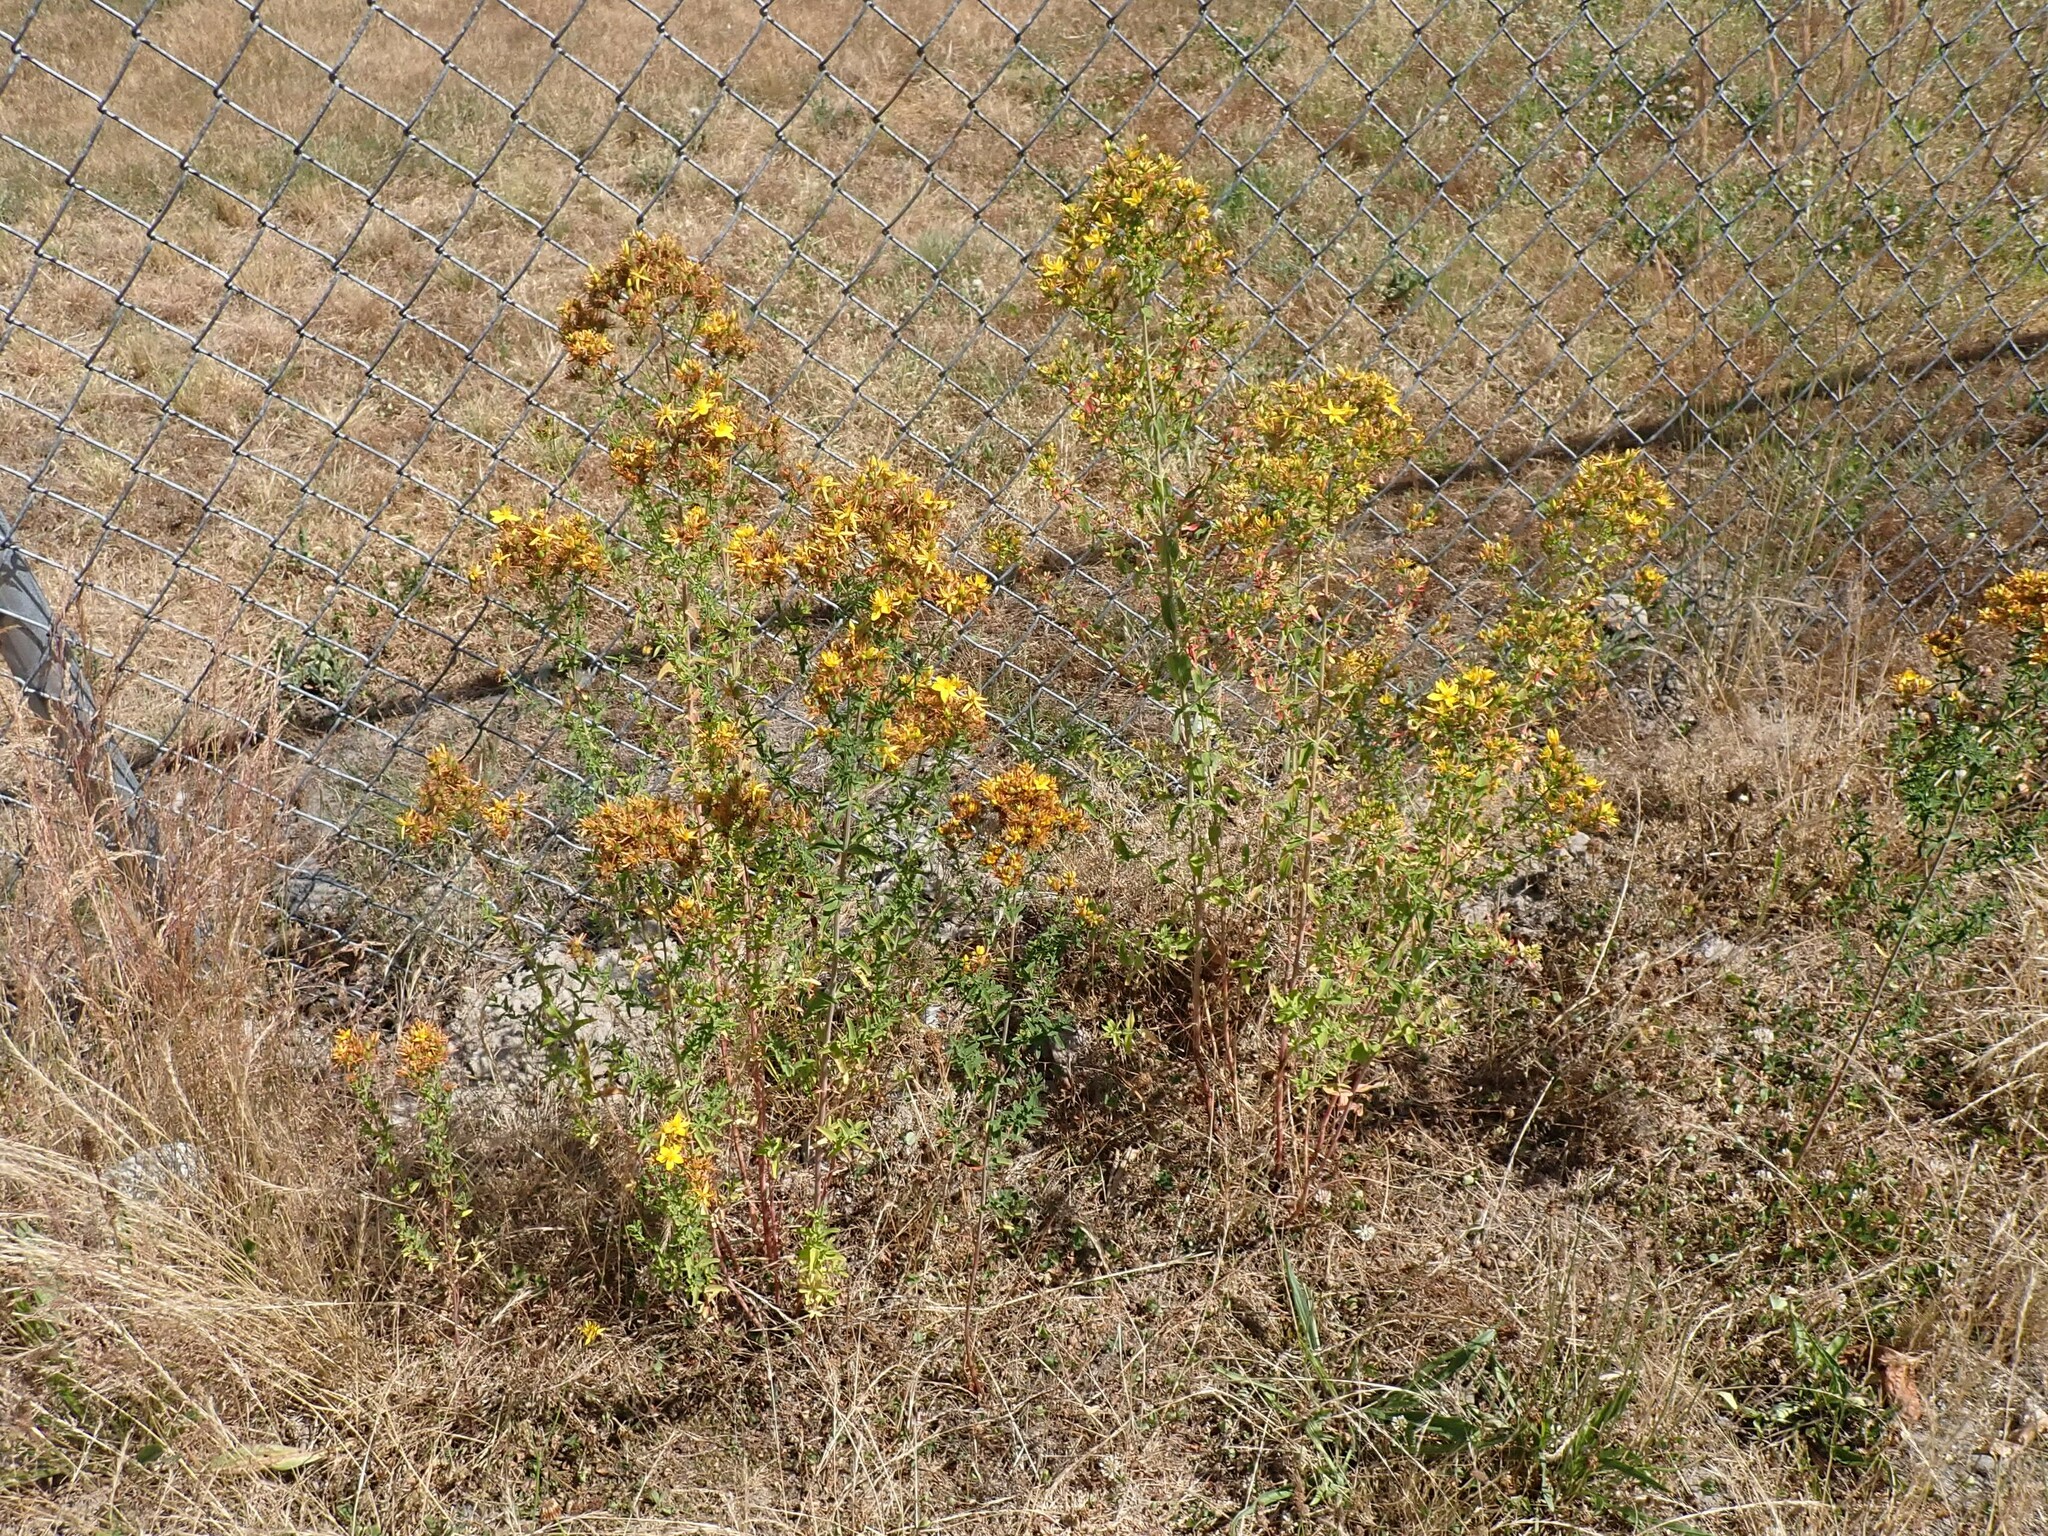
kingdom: Plantae
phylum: Tracheophyta
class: Magnoliopsida
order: Malpighiales
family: Hypericaceae
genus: Hypericum
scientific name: Hypericum perforatum
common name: Common st. johnswort
